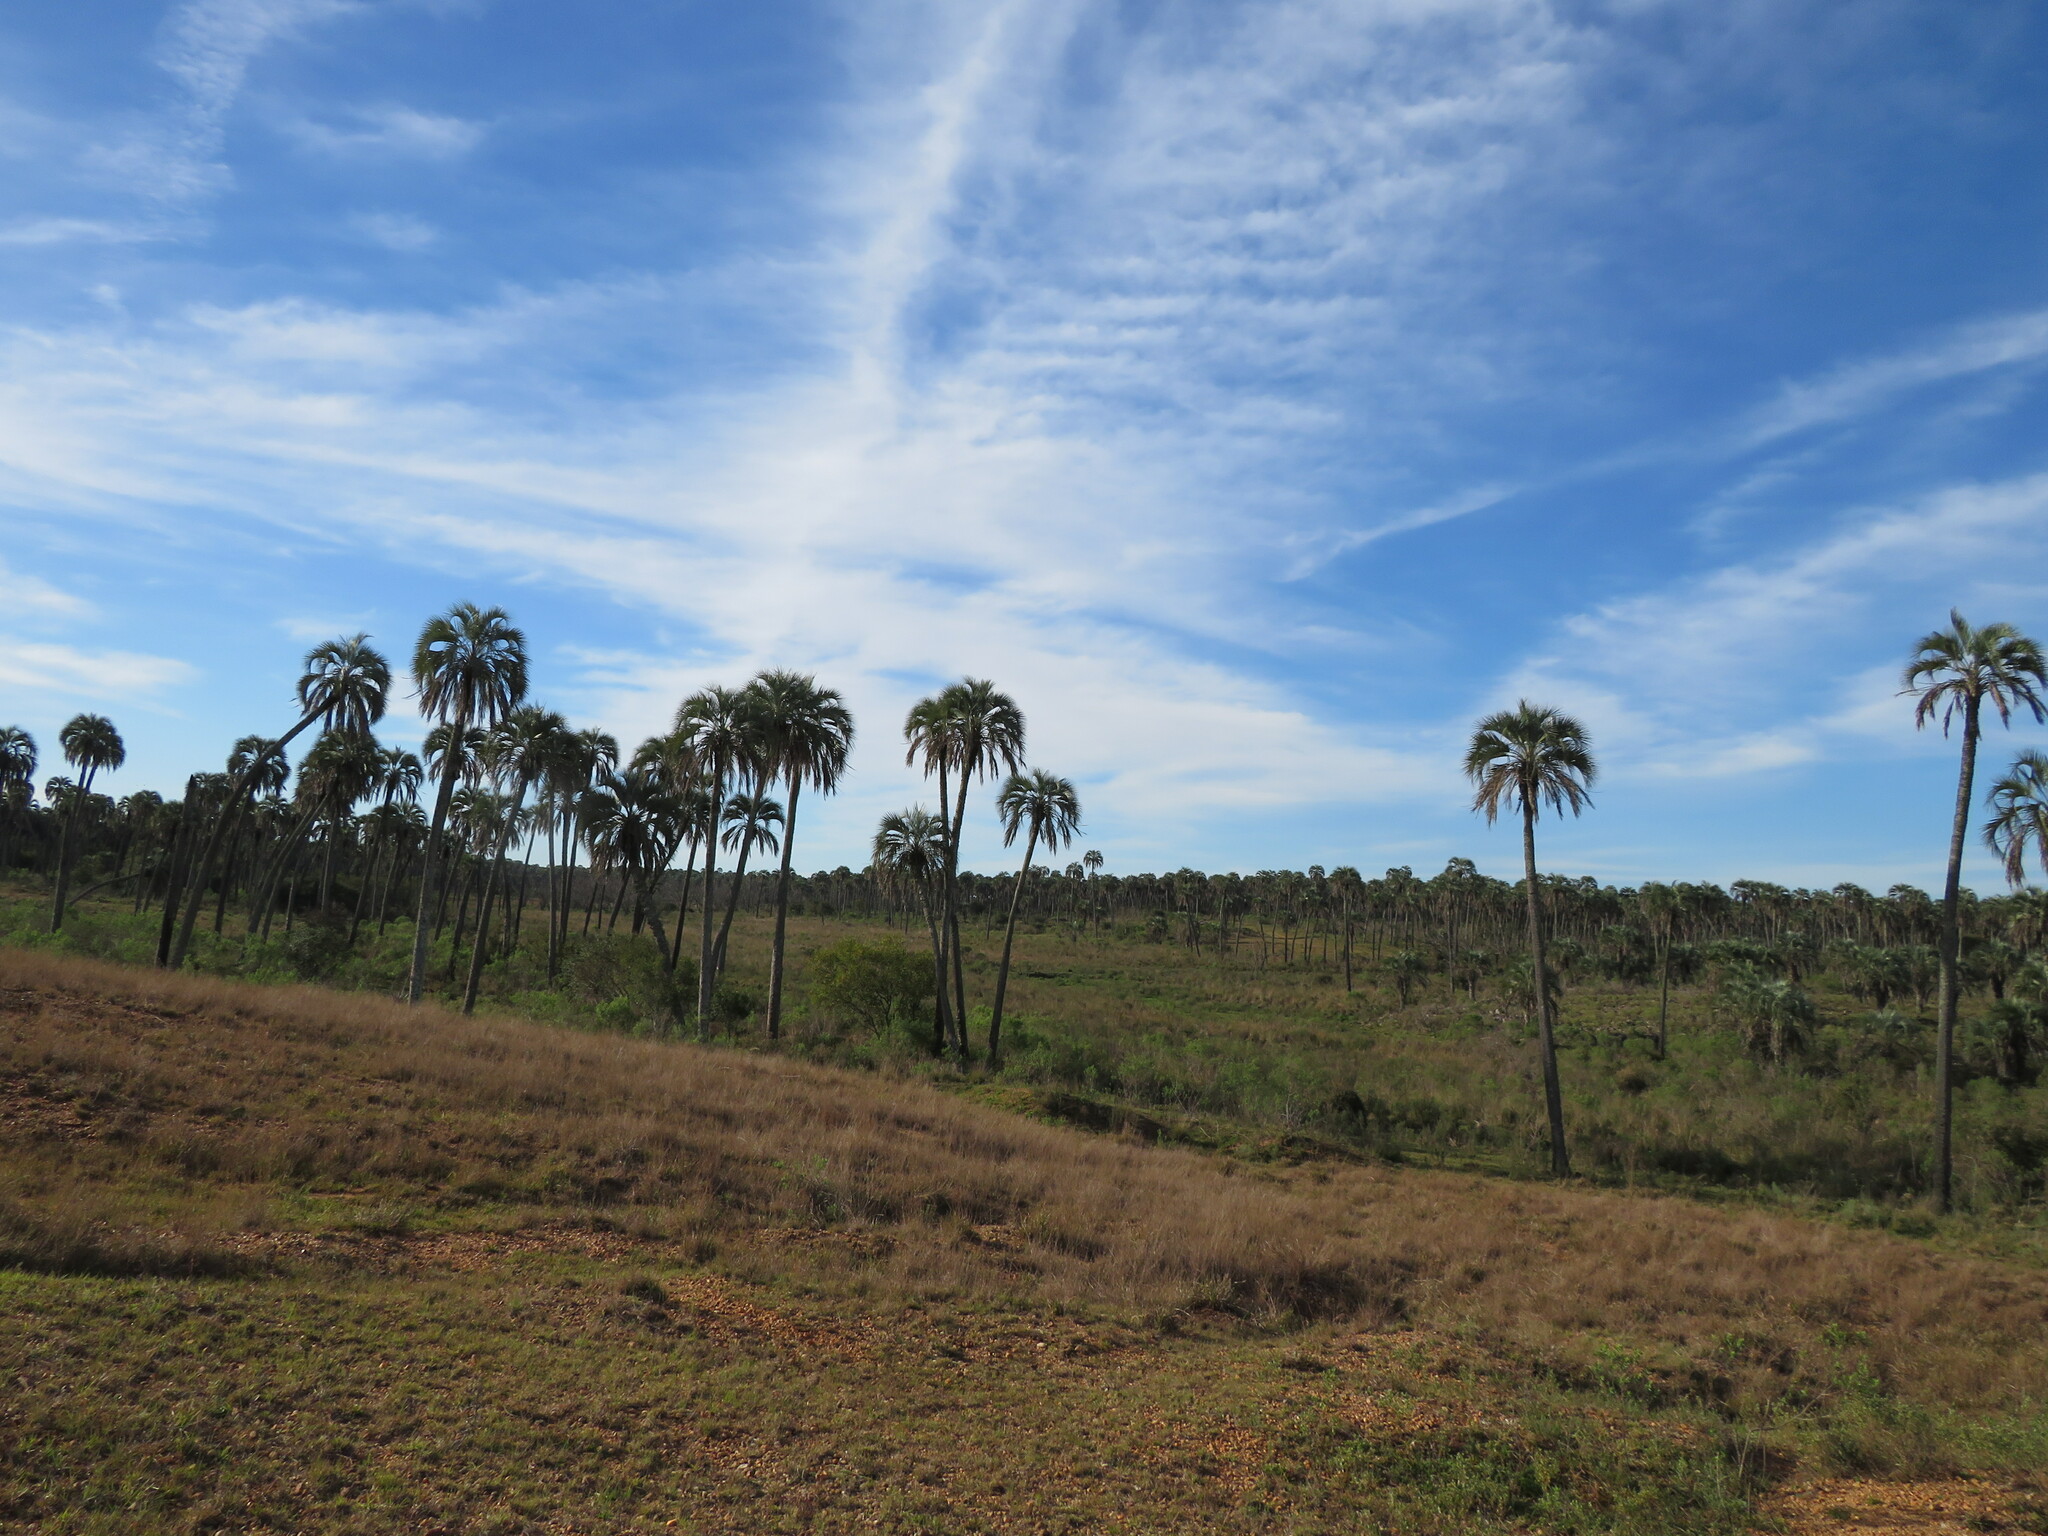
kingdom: Plantae
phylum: Tracheophyta
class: Liliopsida
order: Arecales
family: Arecaceae
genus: Butia
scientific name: Butia yatay
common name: Yatay palm
